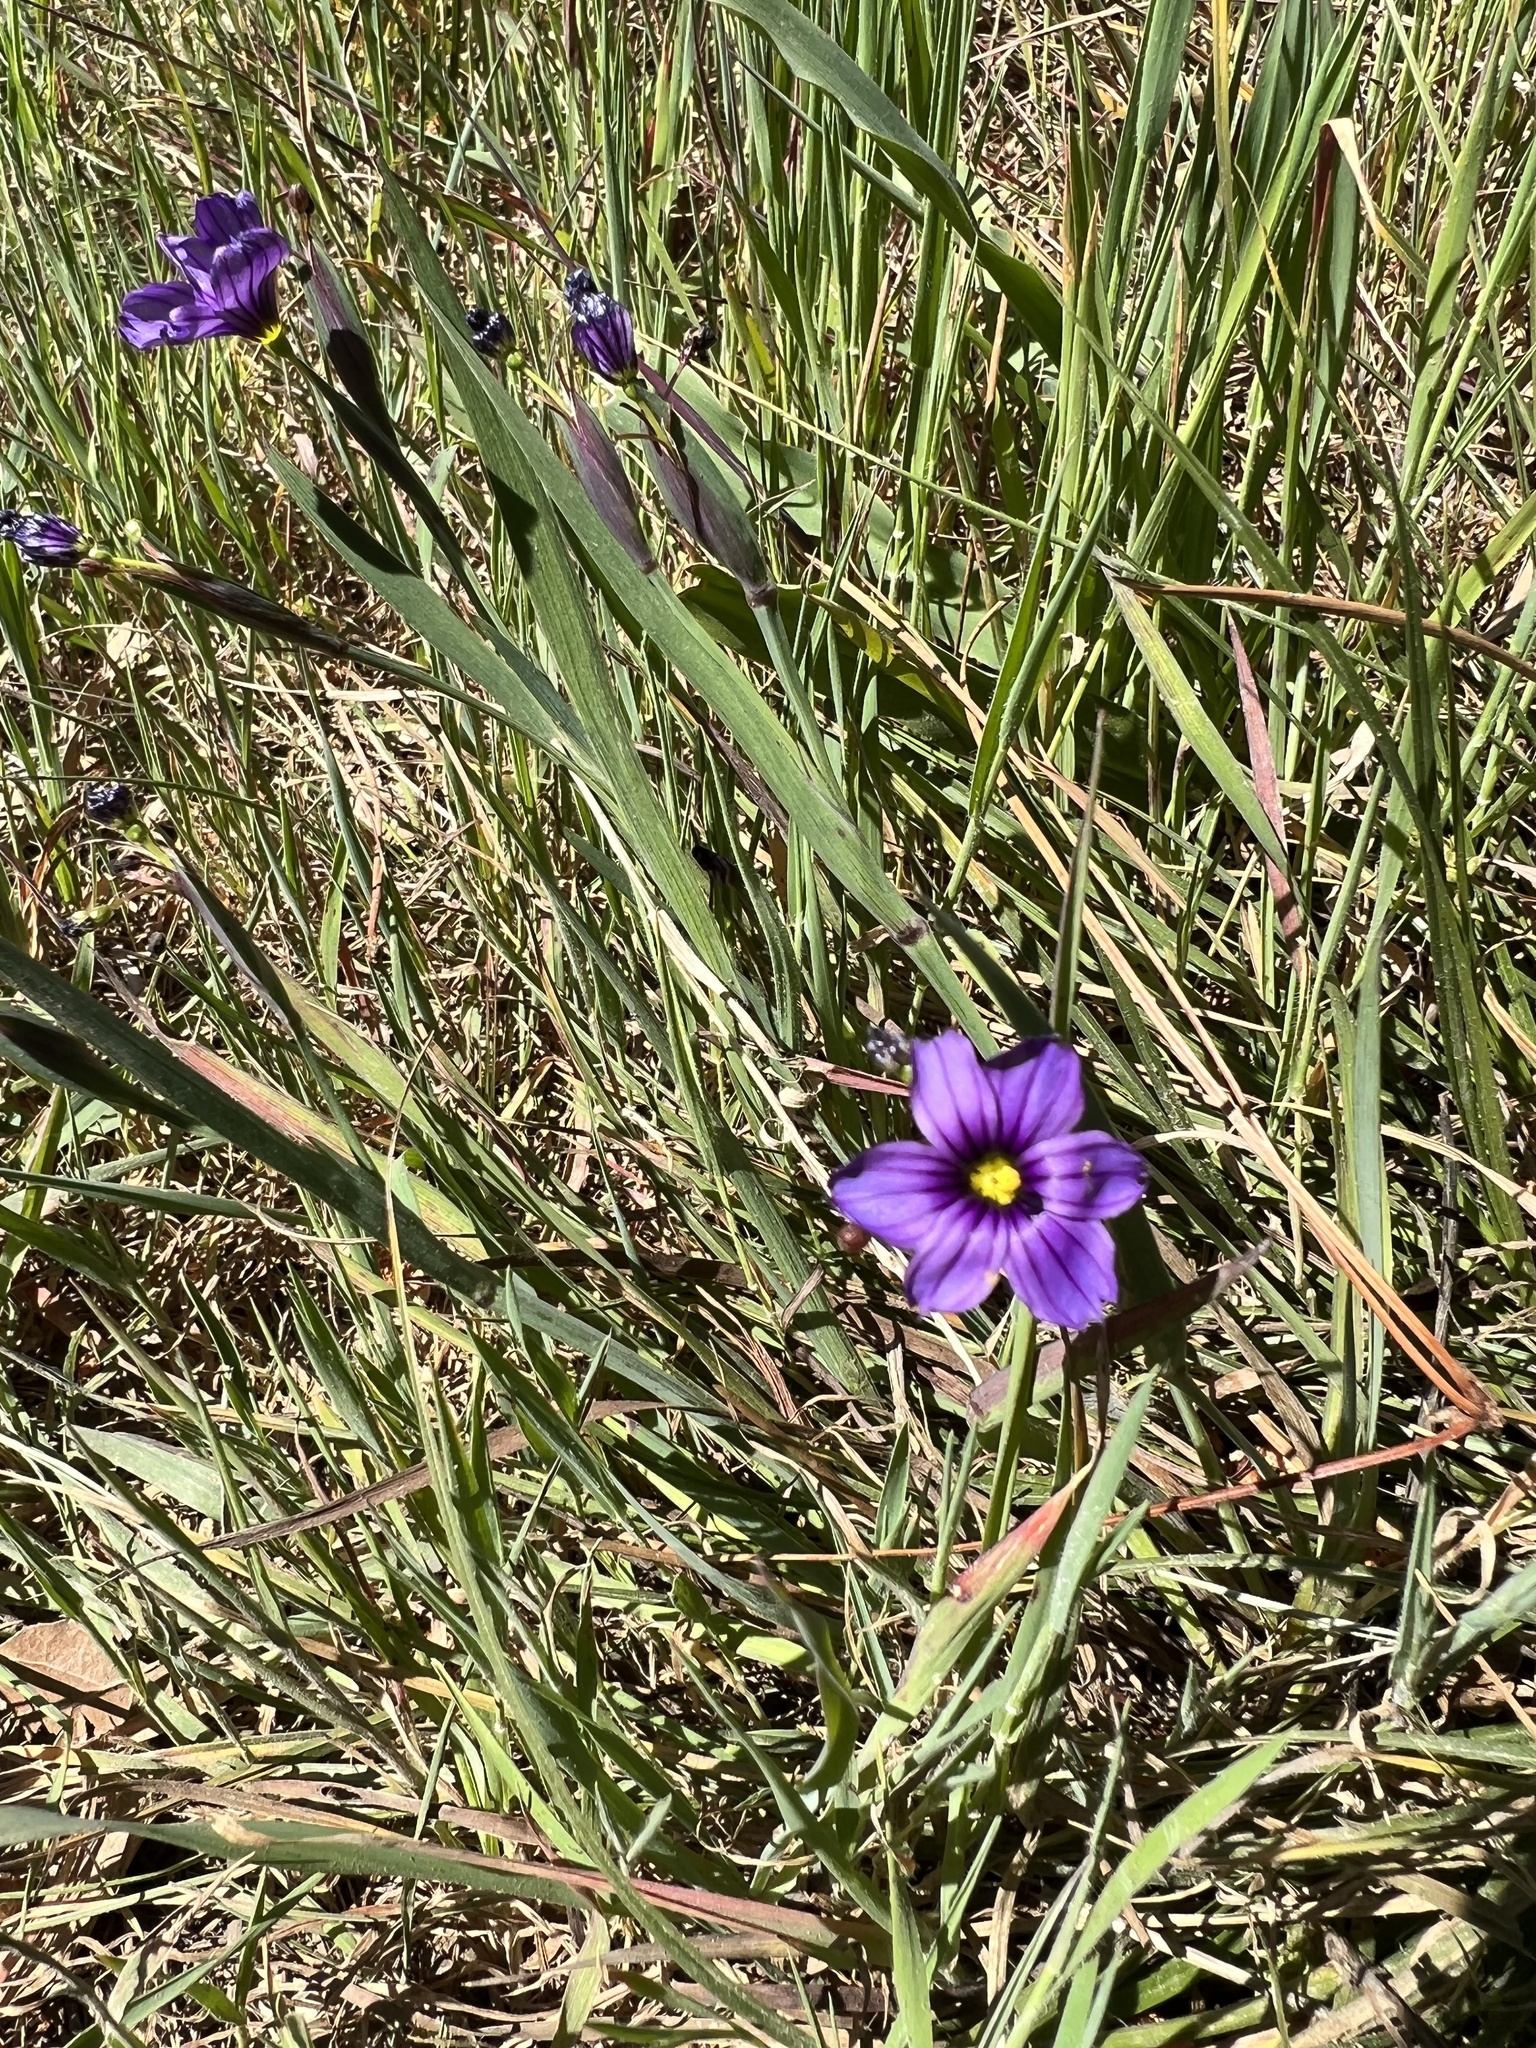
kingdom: Plantae
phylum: Tracheophyta
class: Liliopsida
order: Asparagales
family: Iridaceae
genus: Sisyrinchium
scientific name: Sisyrinchium bellum
